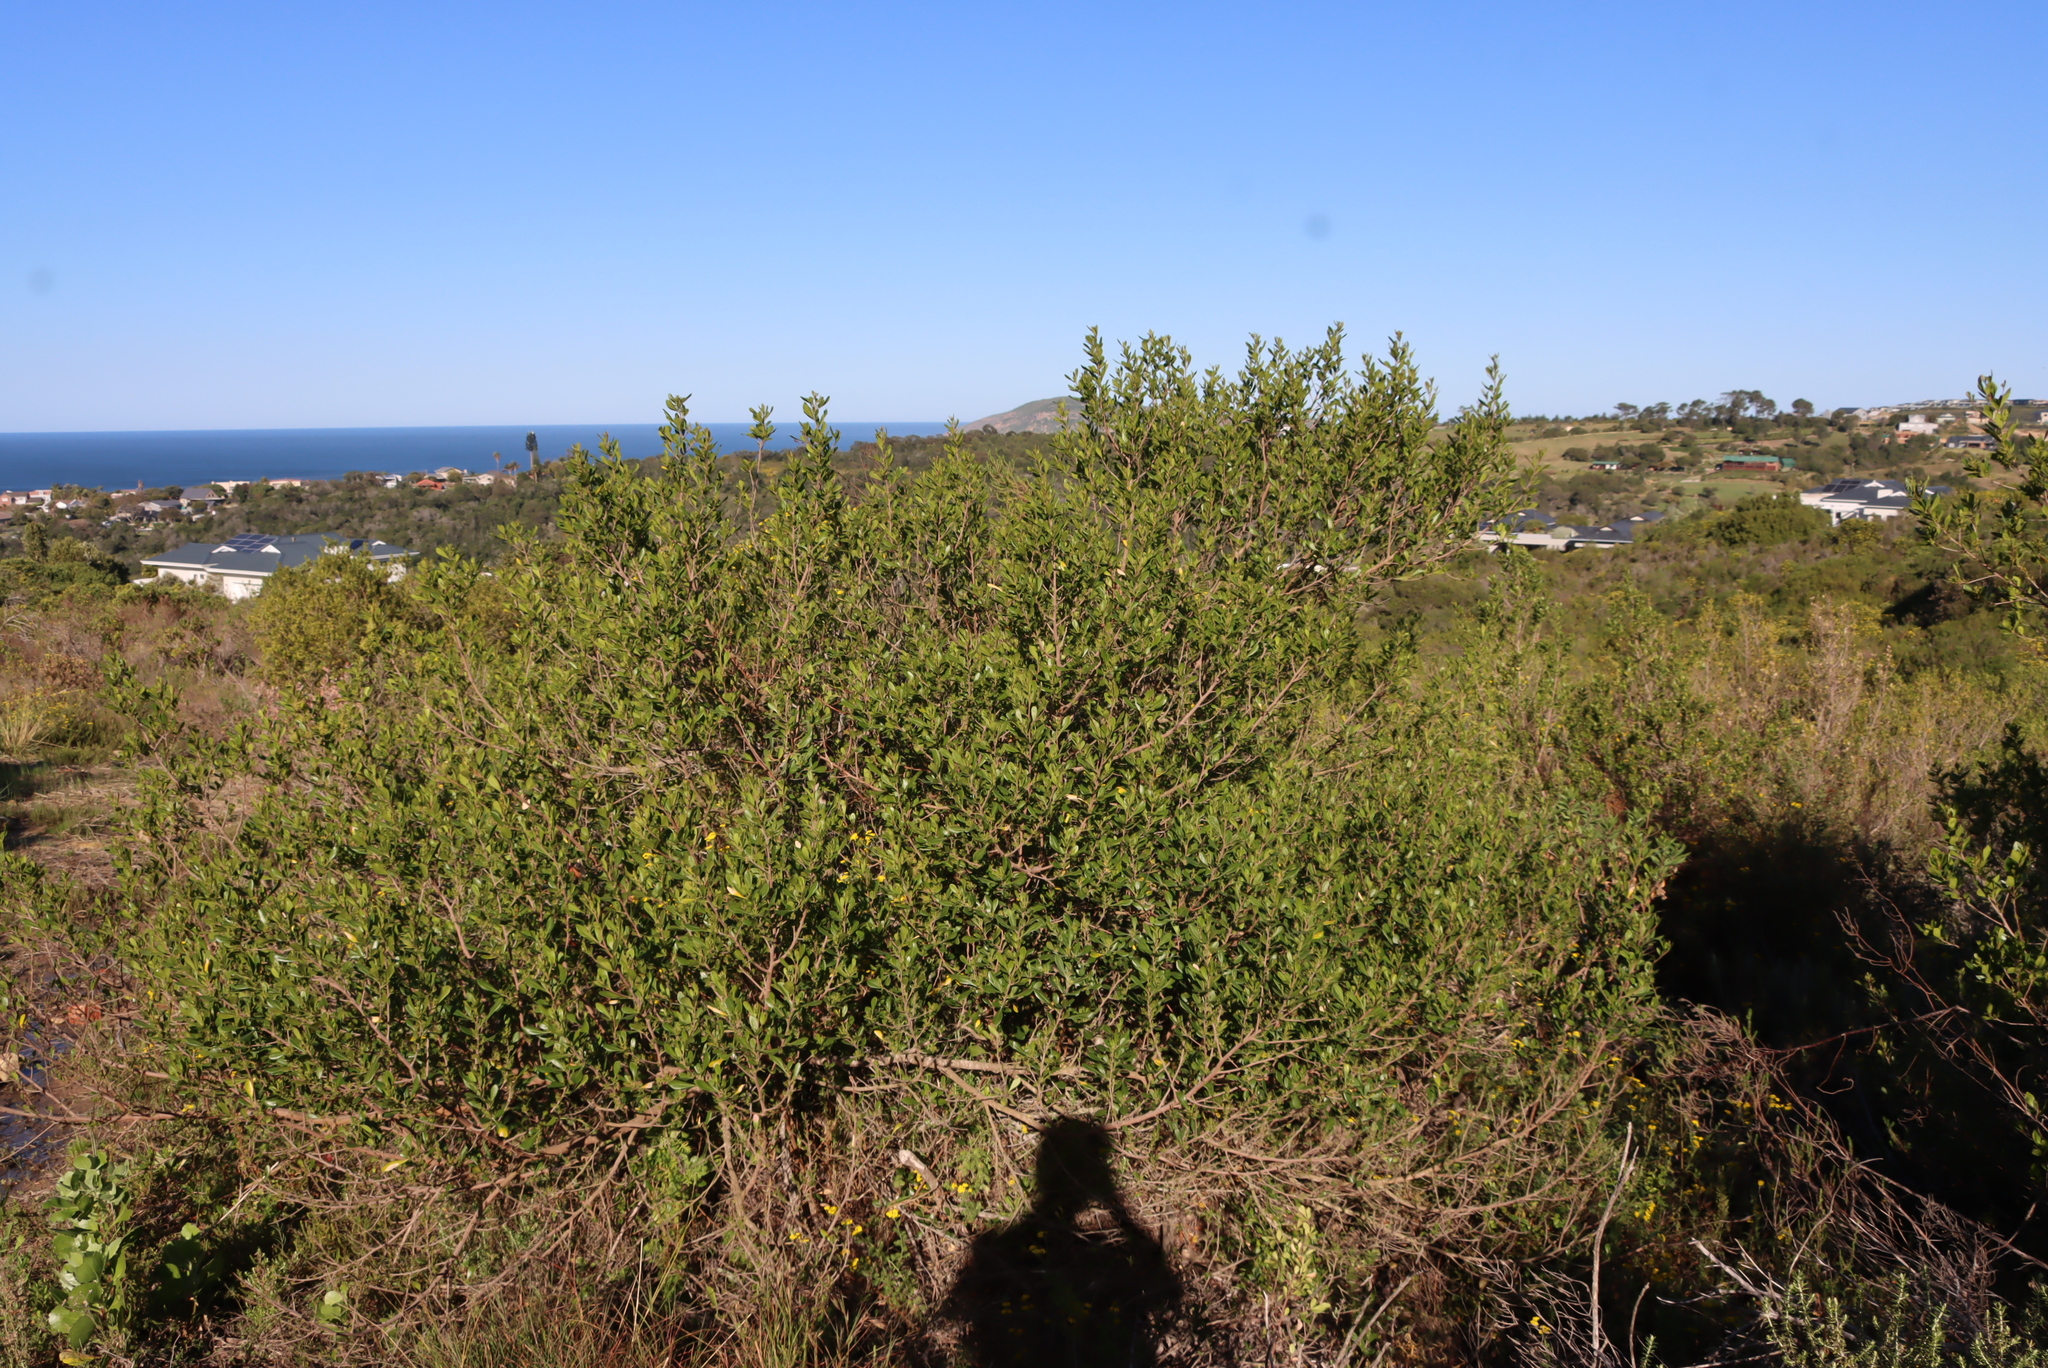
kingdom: Plantae
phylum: Tracheophyta
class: Magnoliopsida
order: Sapindales
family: Anacardiaceae
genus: Searsia
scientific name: Searsia lucida
